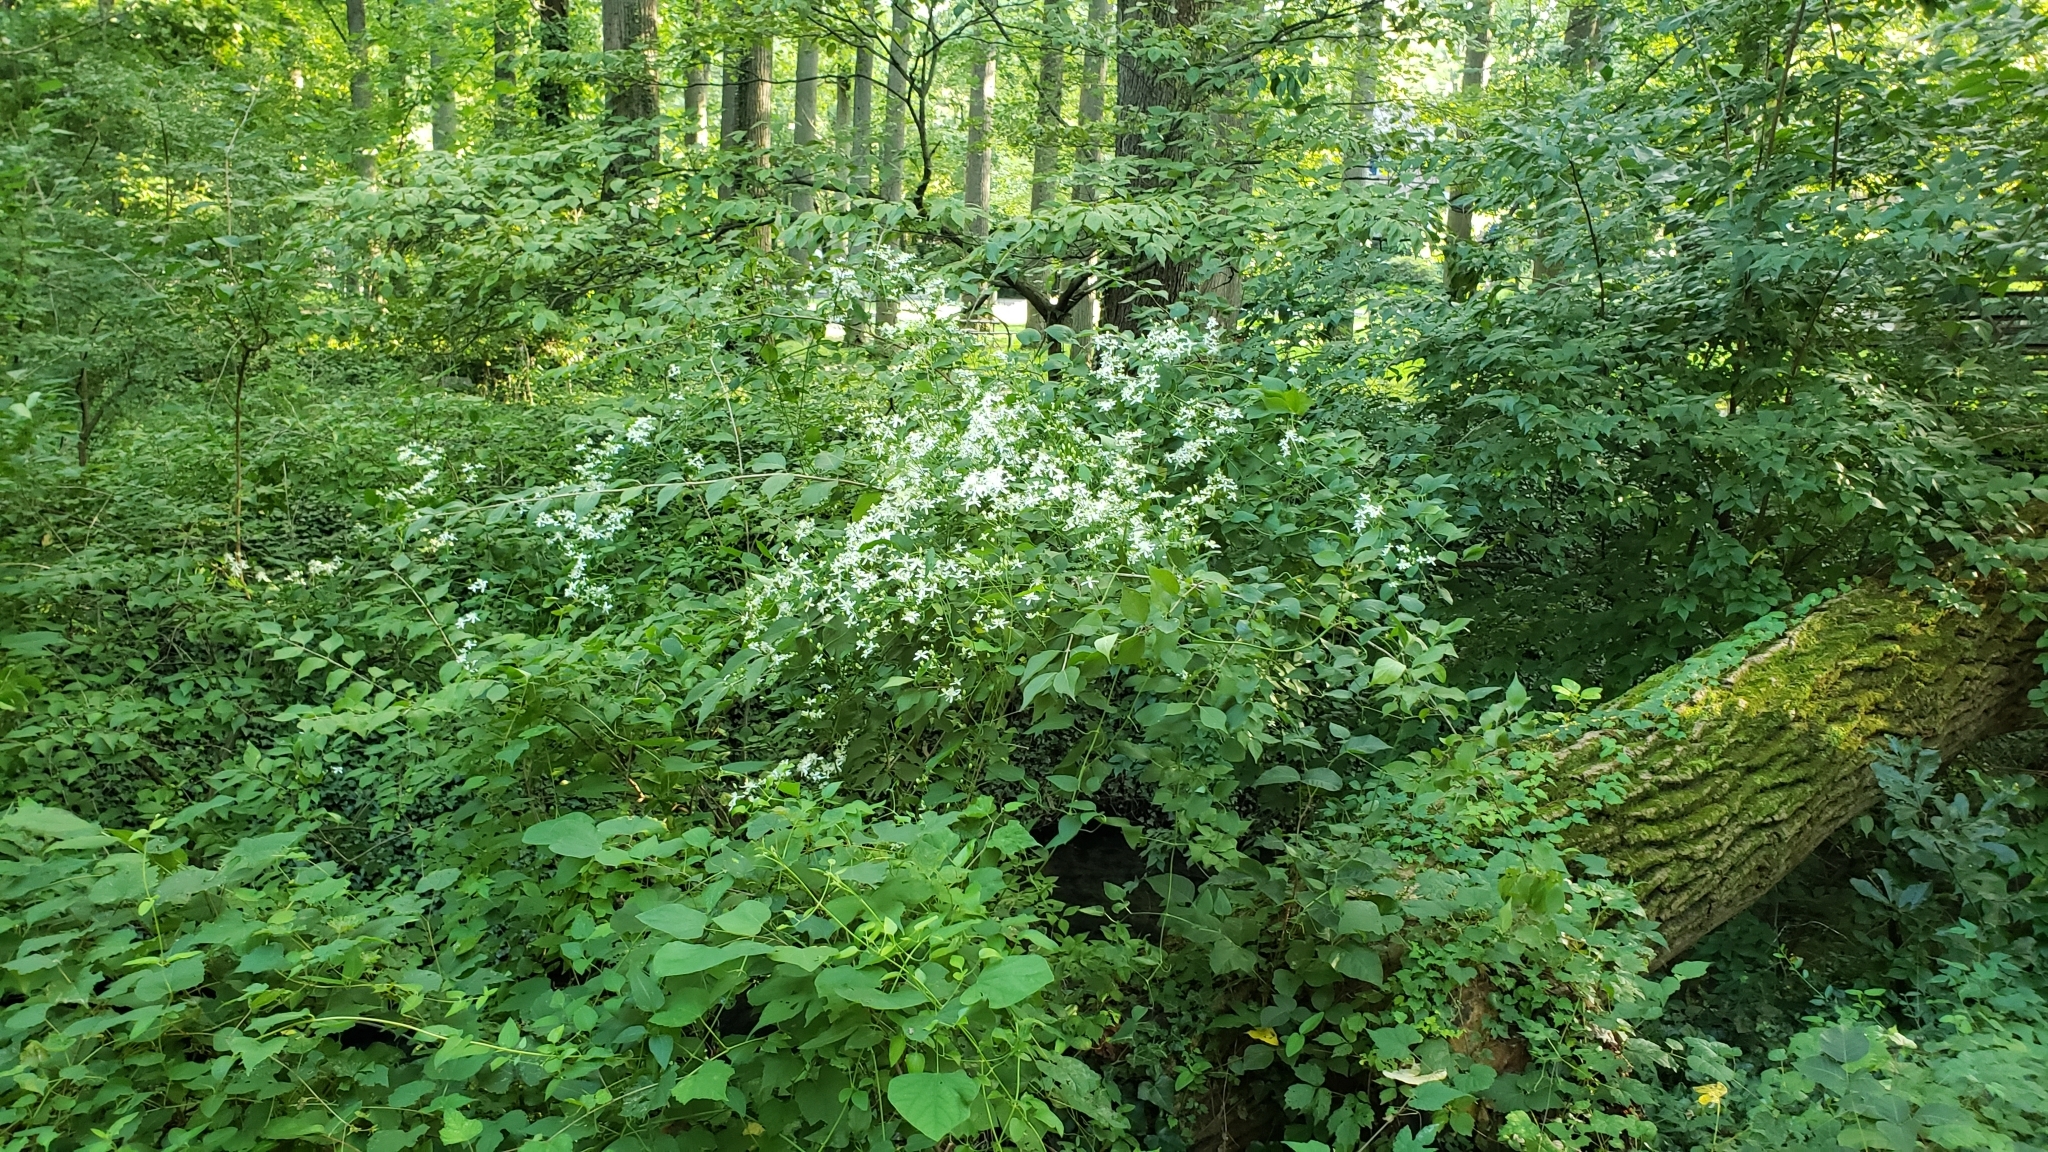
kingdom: Plantae
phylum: Tracheophyta
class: Magnoliopsida
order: Ranunculales
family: Ranunculaceae
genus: Clematis
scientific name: Clematis terniflora
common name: Sweet autumn clematis
